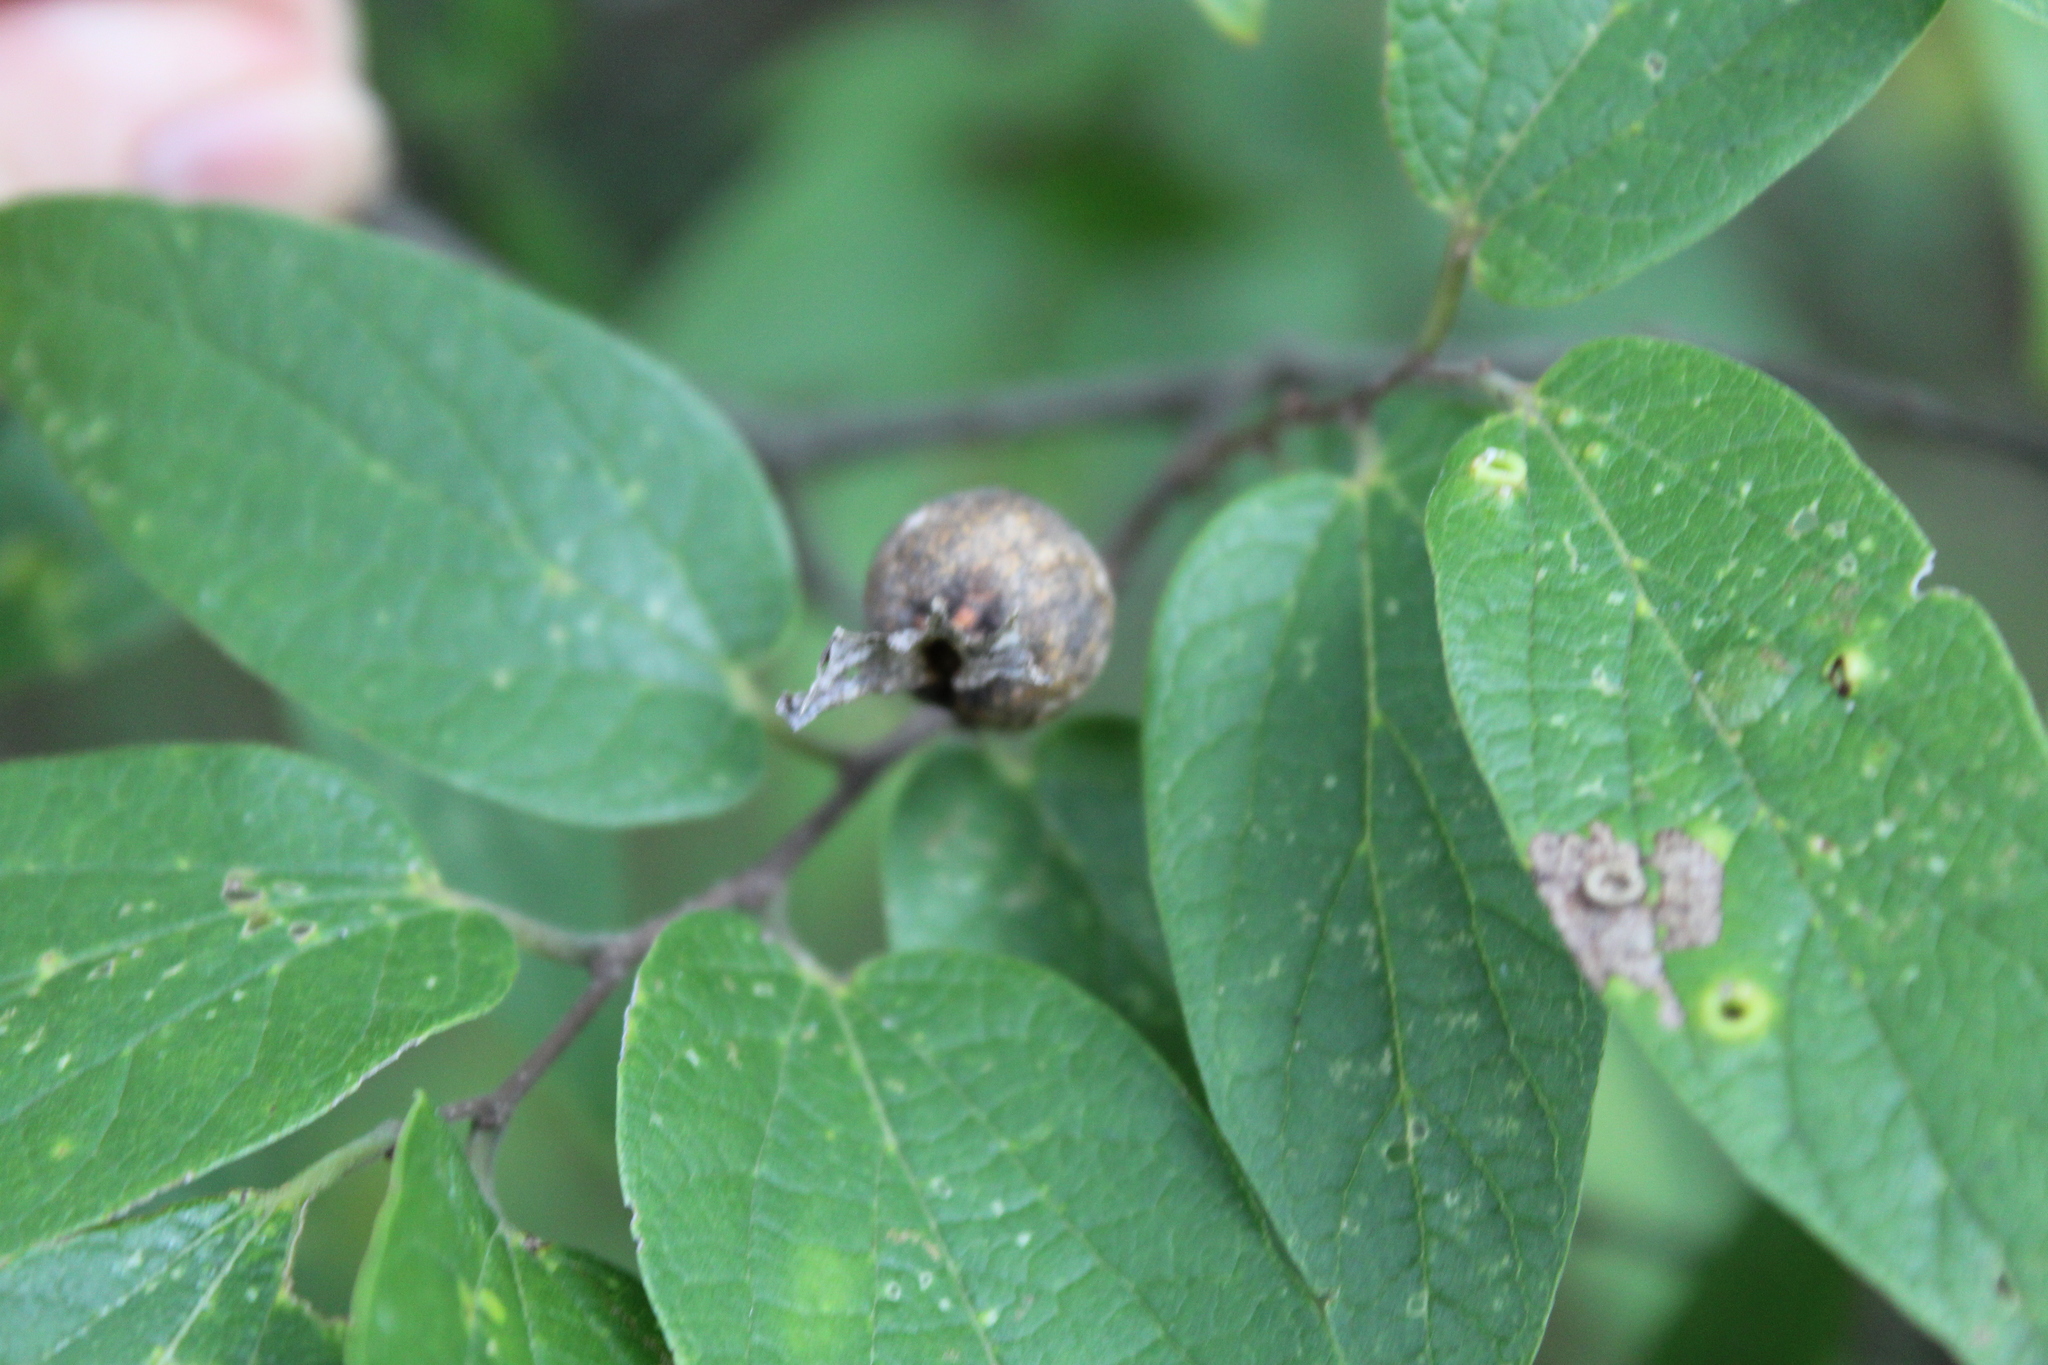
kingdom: Animalia
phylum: Arthropoda
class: Insecta
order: Hemiptera
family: Aphalaridae
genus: Pachypsylla
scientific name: Pachypsylla venusta
